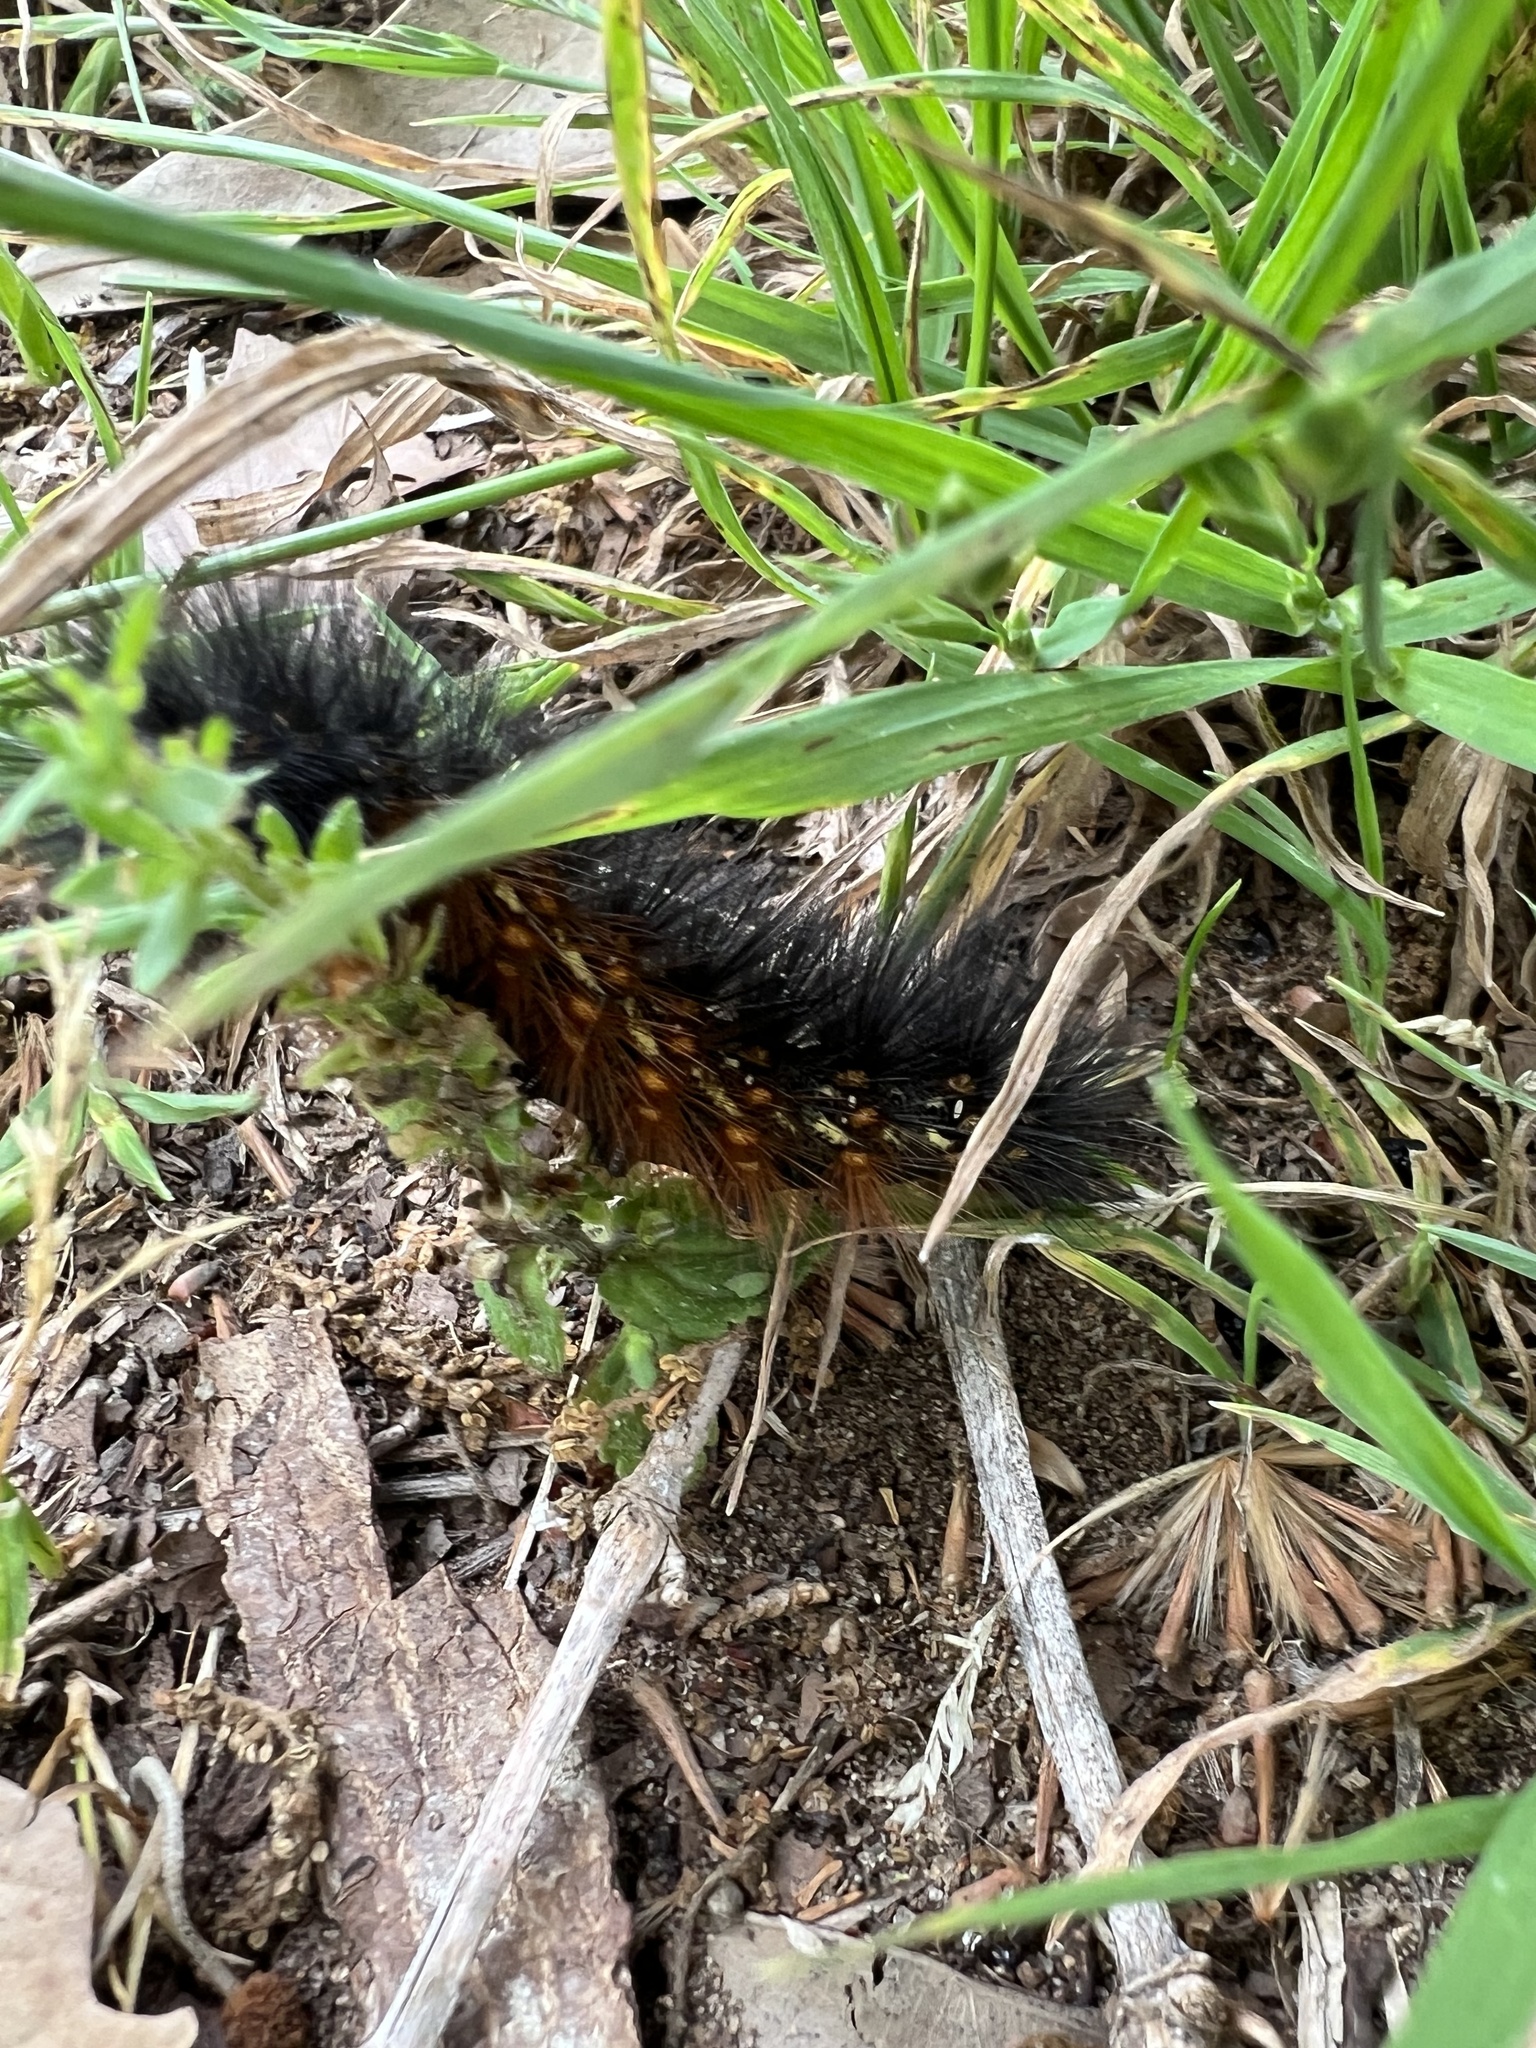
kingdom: Animalia
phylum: Arthropoda
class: Insecta
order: Lepidoptera
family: Erebidae
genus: Estigmene
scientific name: Estigmene acrea
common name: Salt marsh moth
